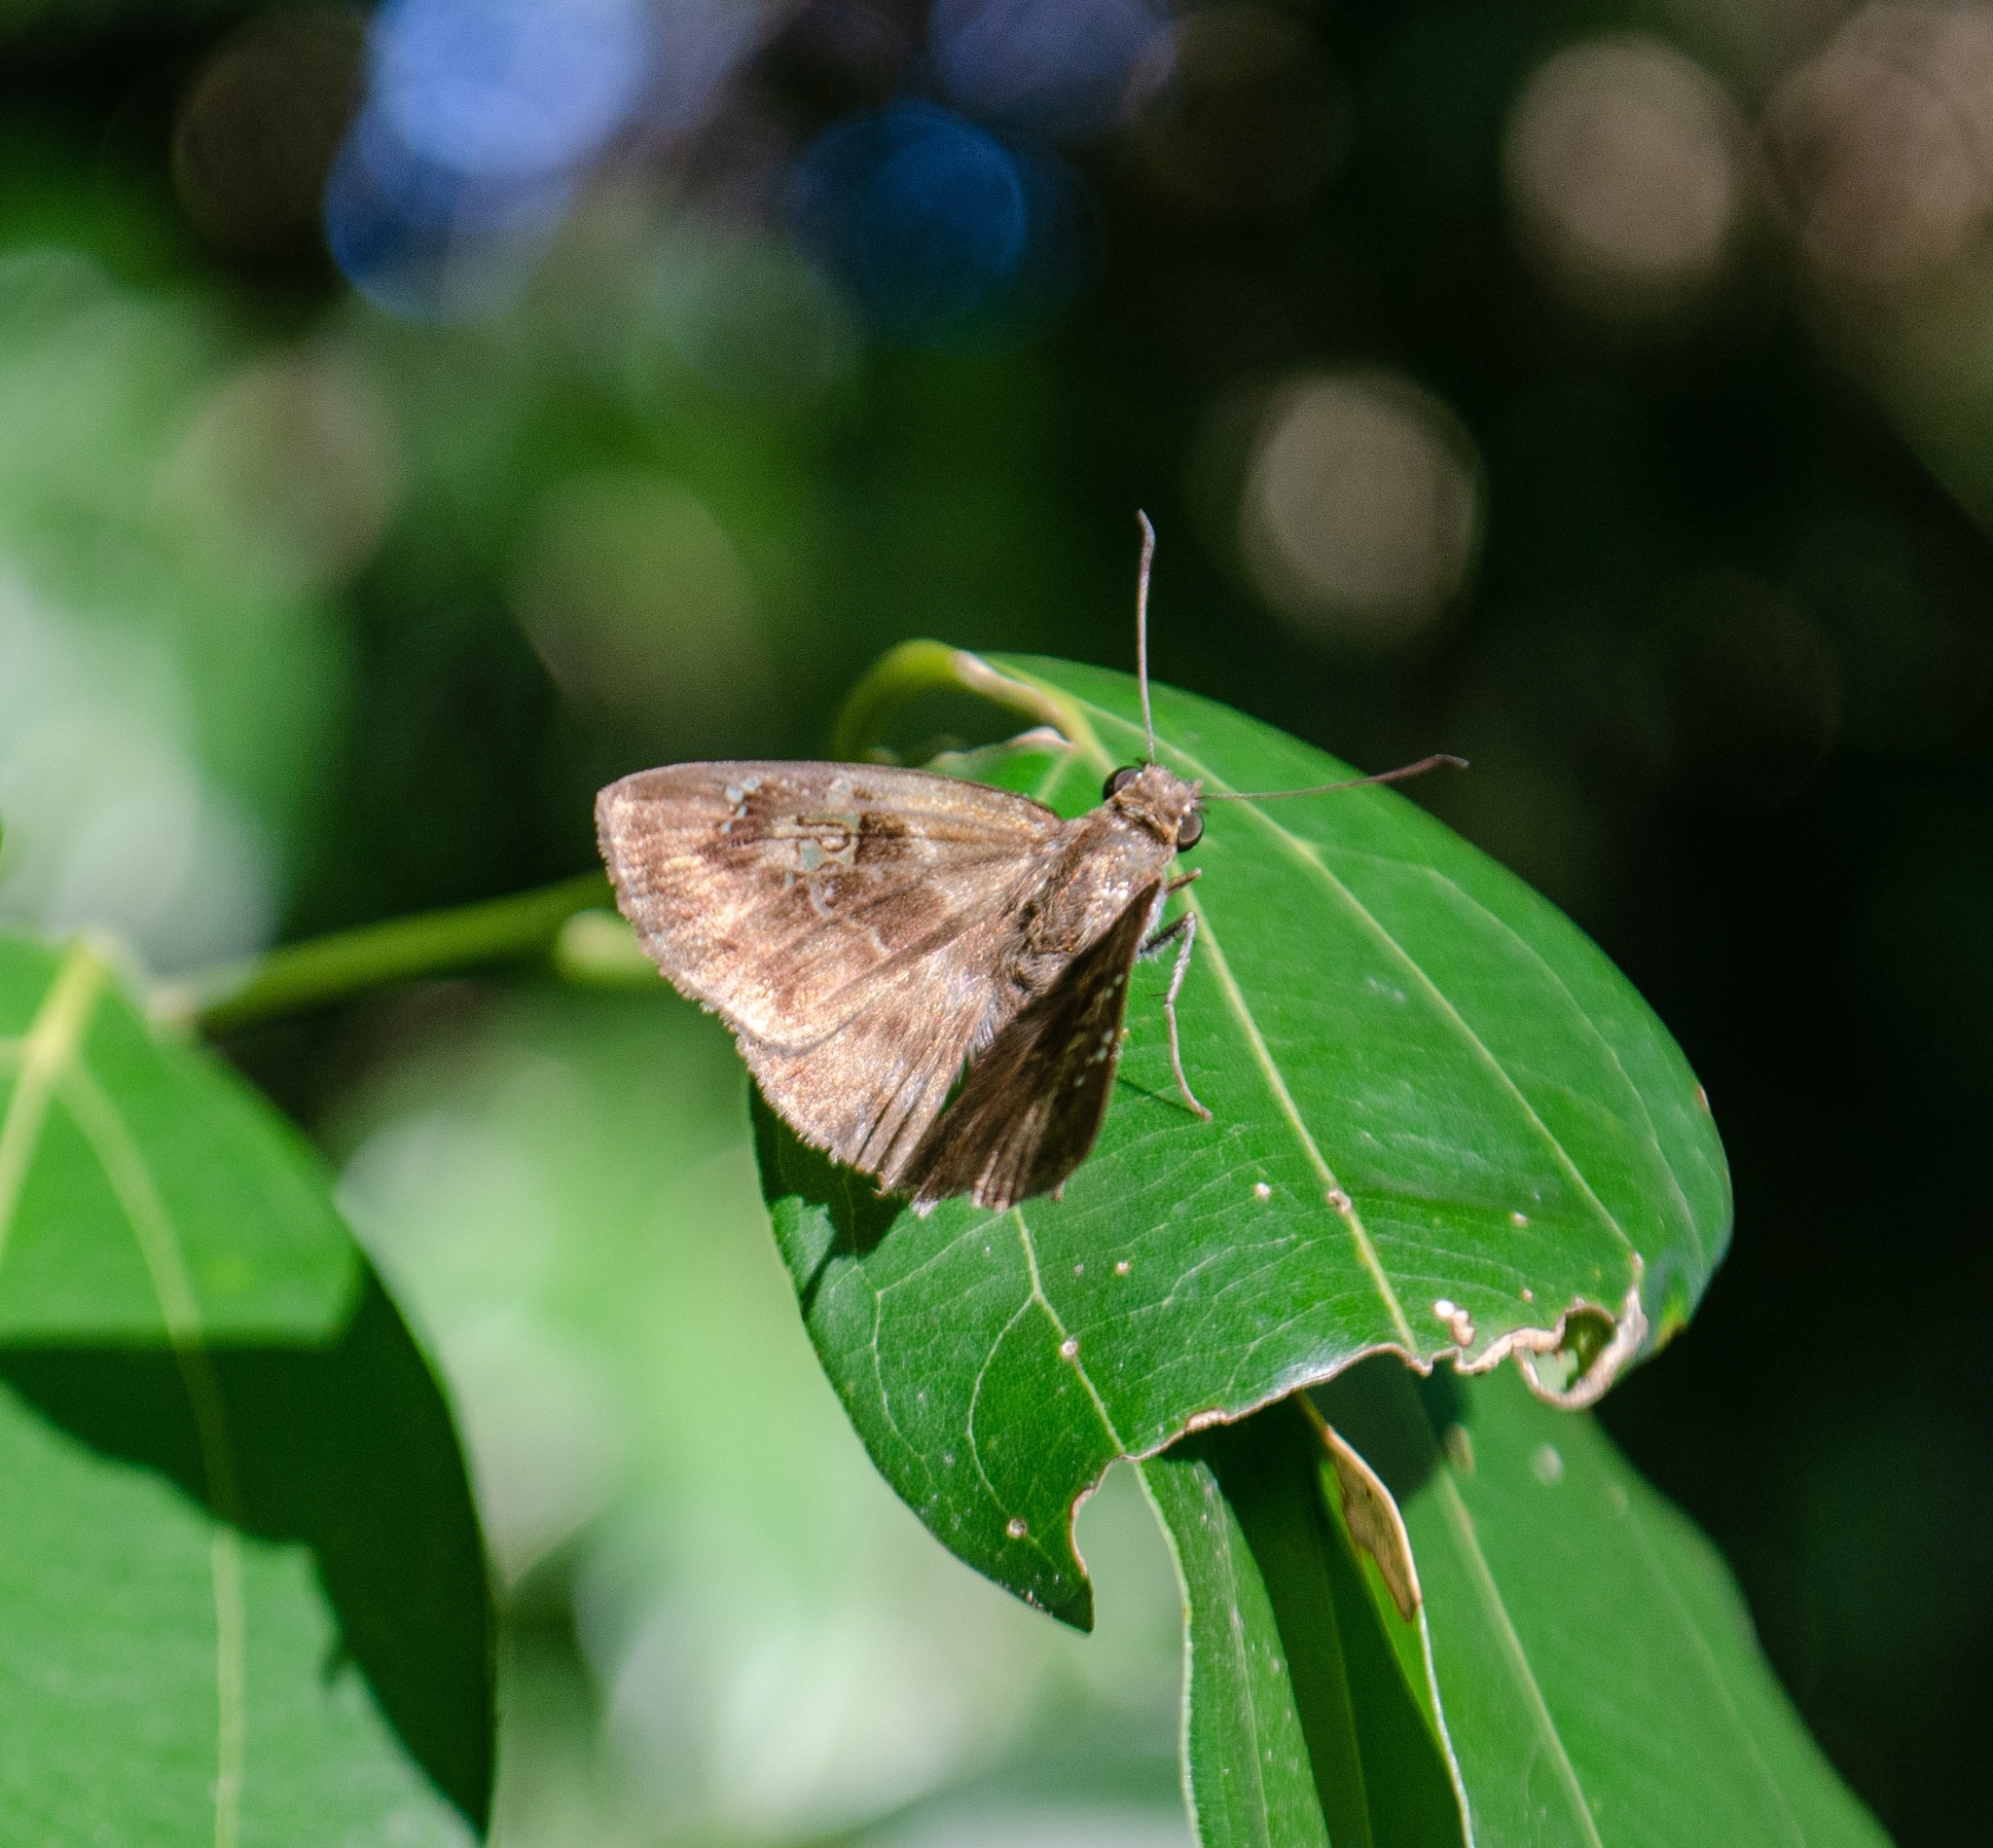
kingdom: Animalia
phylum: Arthropoda
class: Insecta
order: Lepidoptera
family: Hesperiidae
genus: Quadrus
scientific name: Quadrus ulucida
